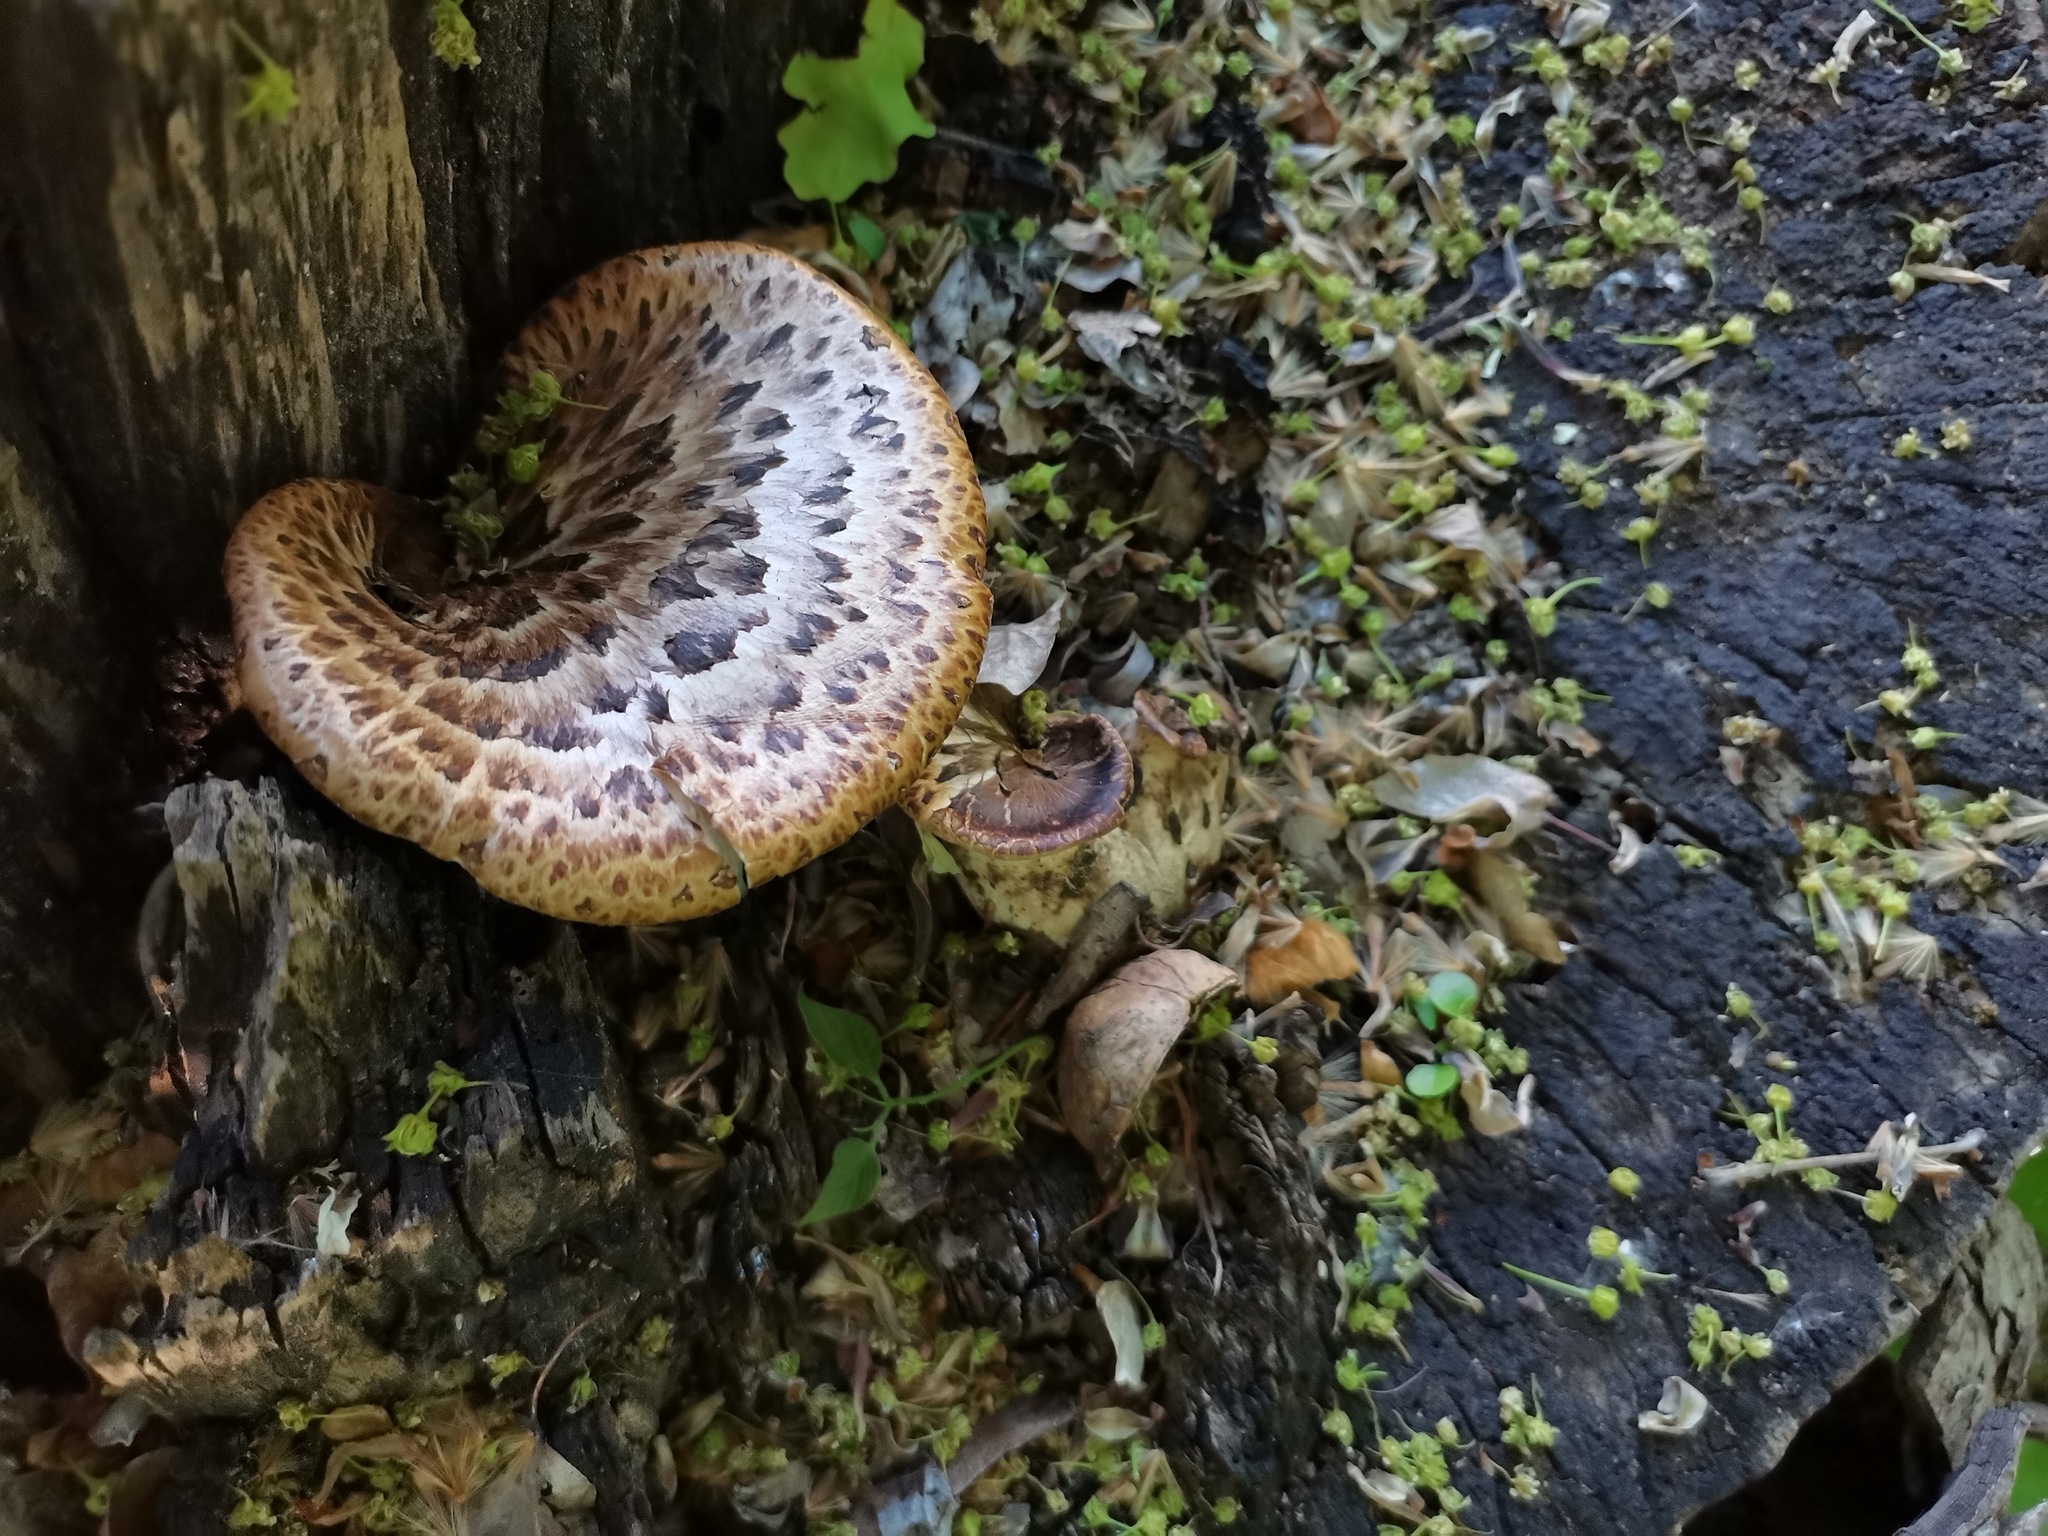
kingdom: Fungi
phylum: Basidiomycota
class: Agaricomycetes
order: Polyporales
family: Polyporaceae
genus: Cerioporus
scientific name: Cerioporus squamosus
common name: Dryad's saddle
